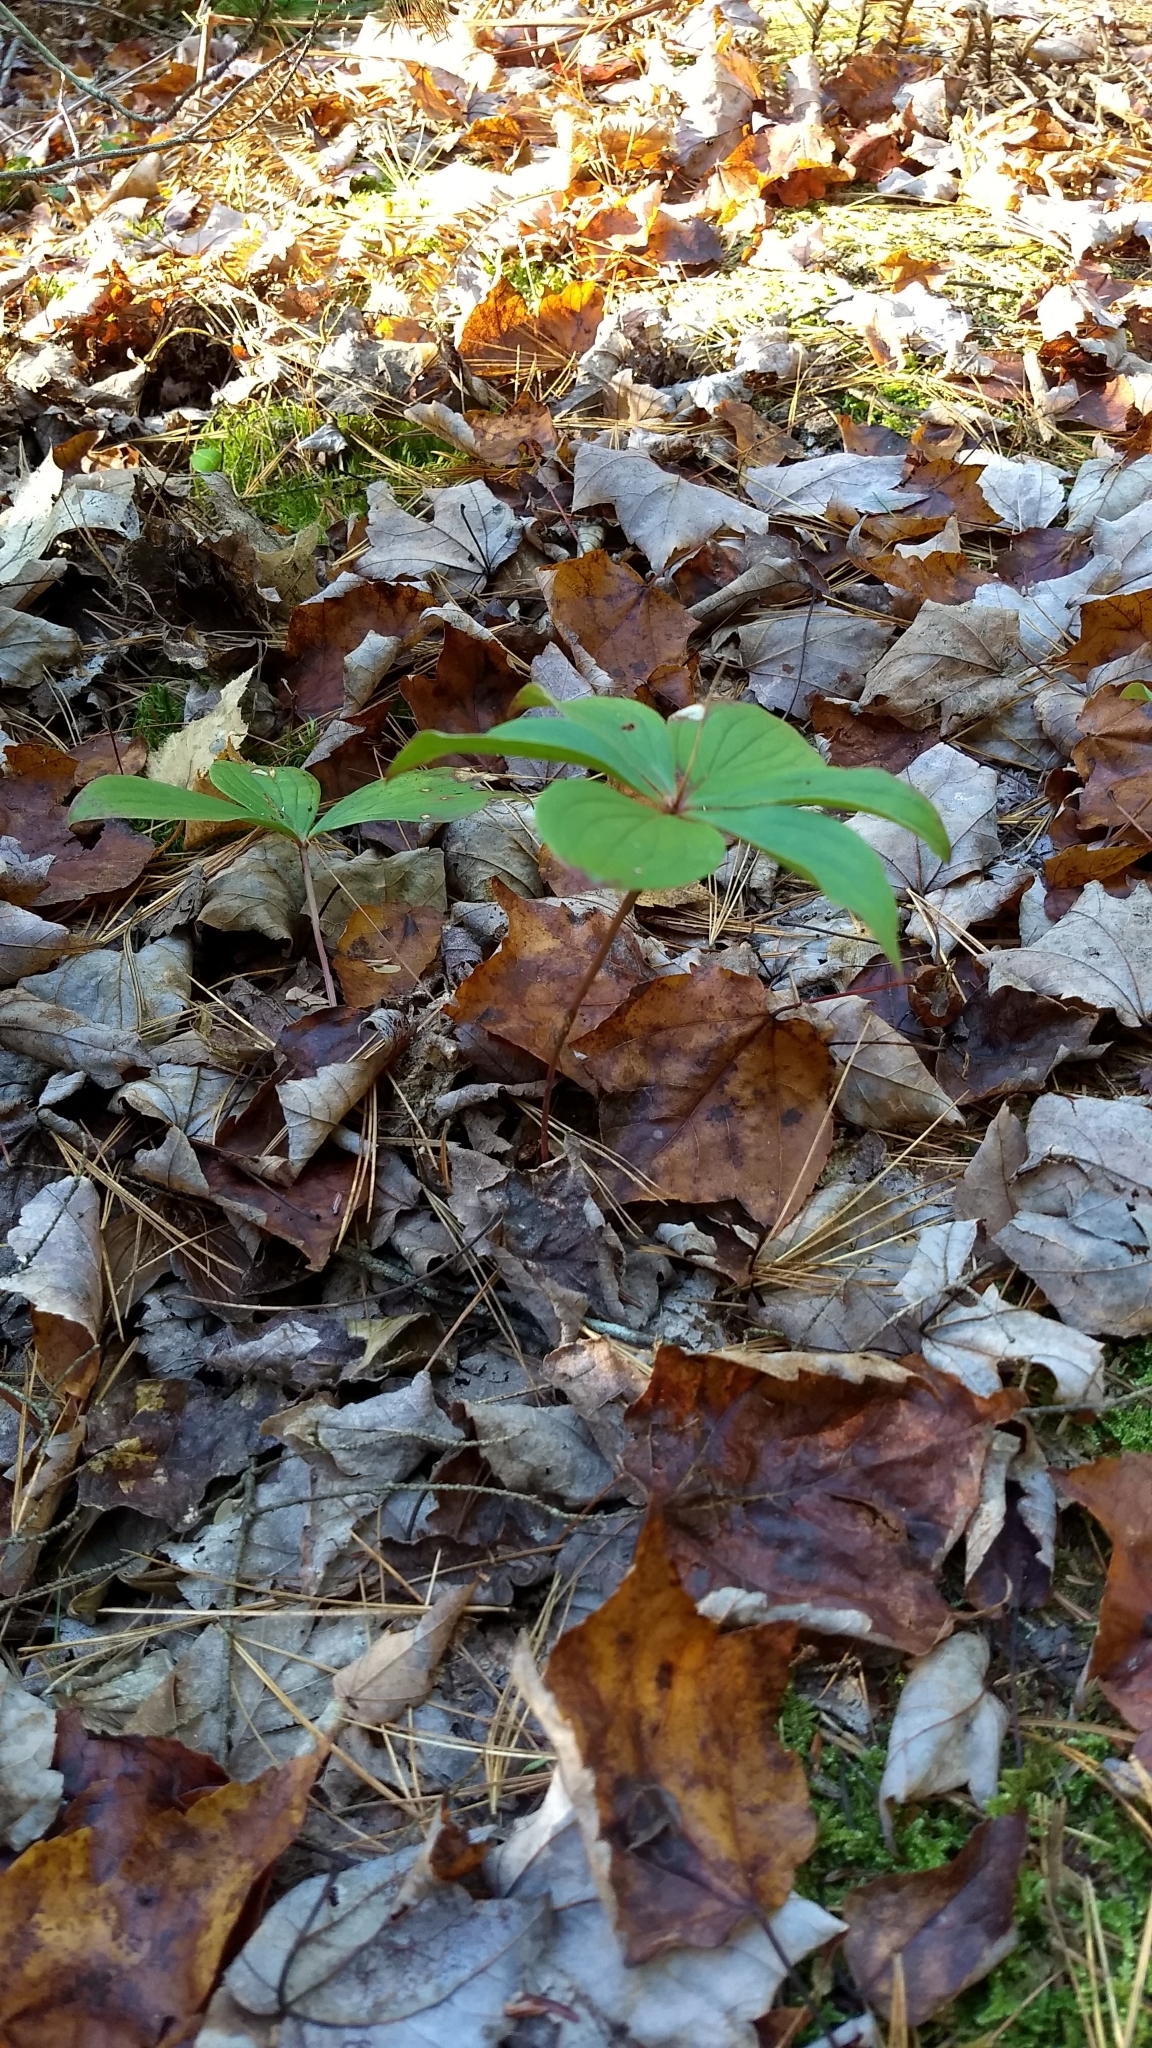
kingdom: Plantae
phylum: Tracheophyta
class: Magnoliopsida
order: Cornales
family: Cornaceae
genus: Cornus
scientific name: Cornus canadensis
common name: Creeping dogwood
